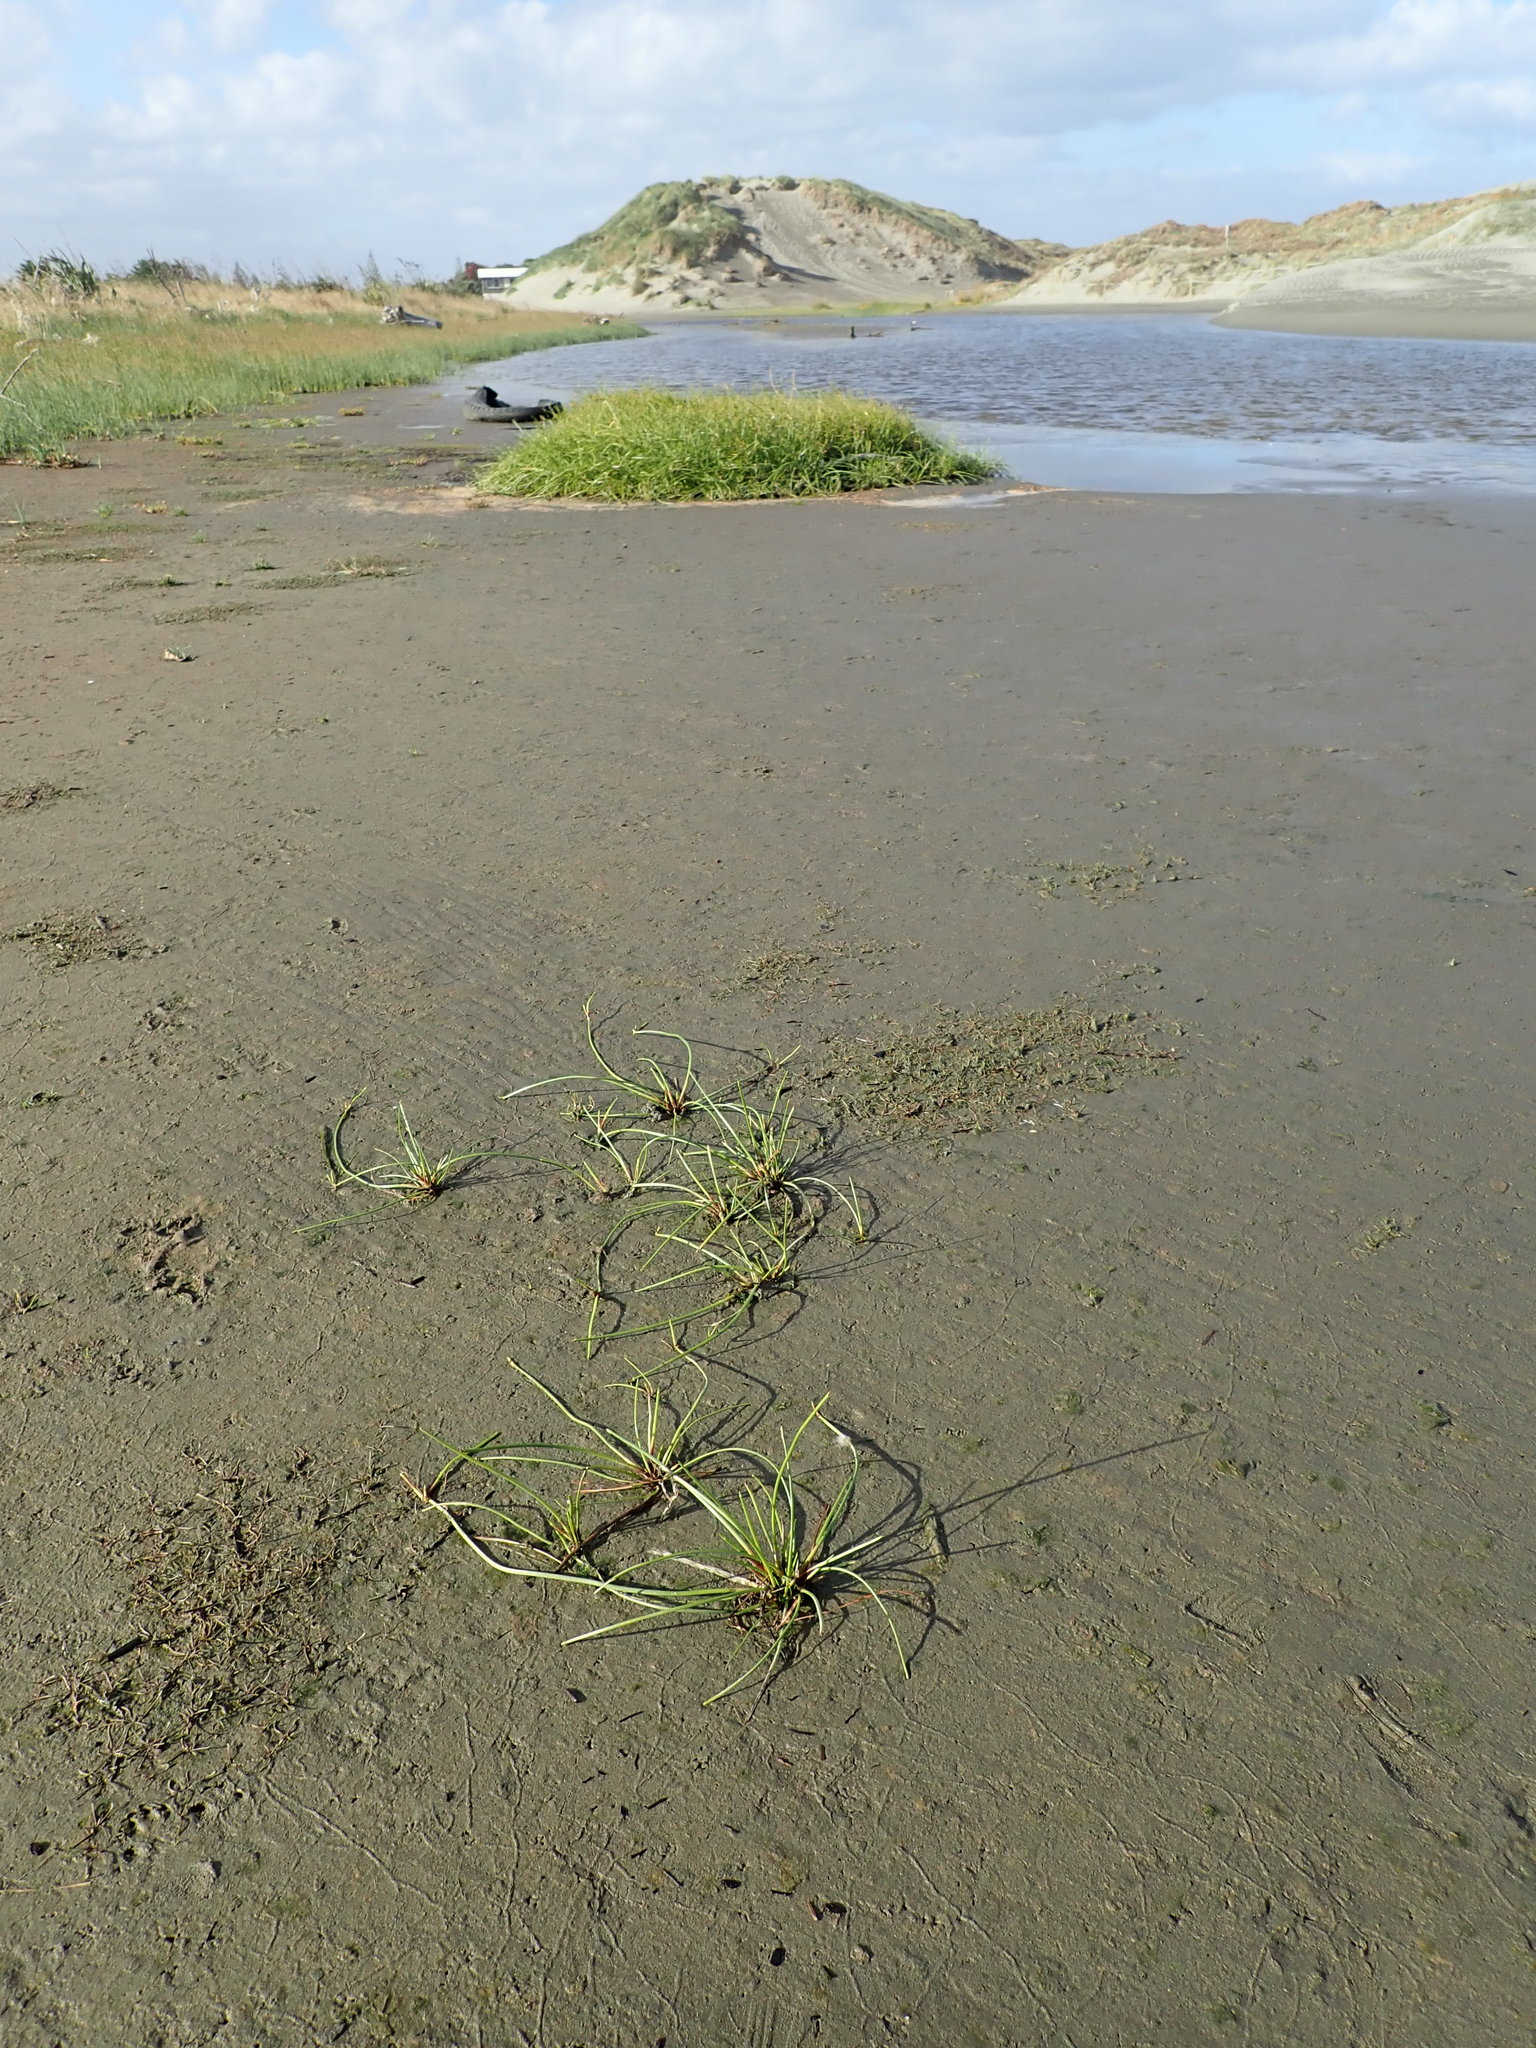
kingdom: Plantae
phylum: Tracheophyta
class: Liliopsida
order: Poales
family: Cyperaceae
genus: Isolepis
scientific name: Isolepis prolifera
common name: Proliferating bulrush
